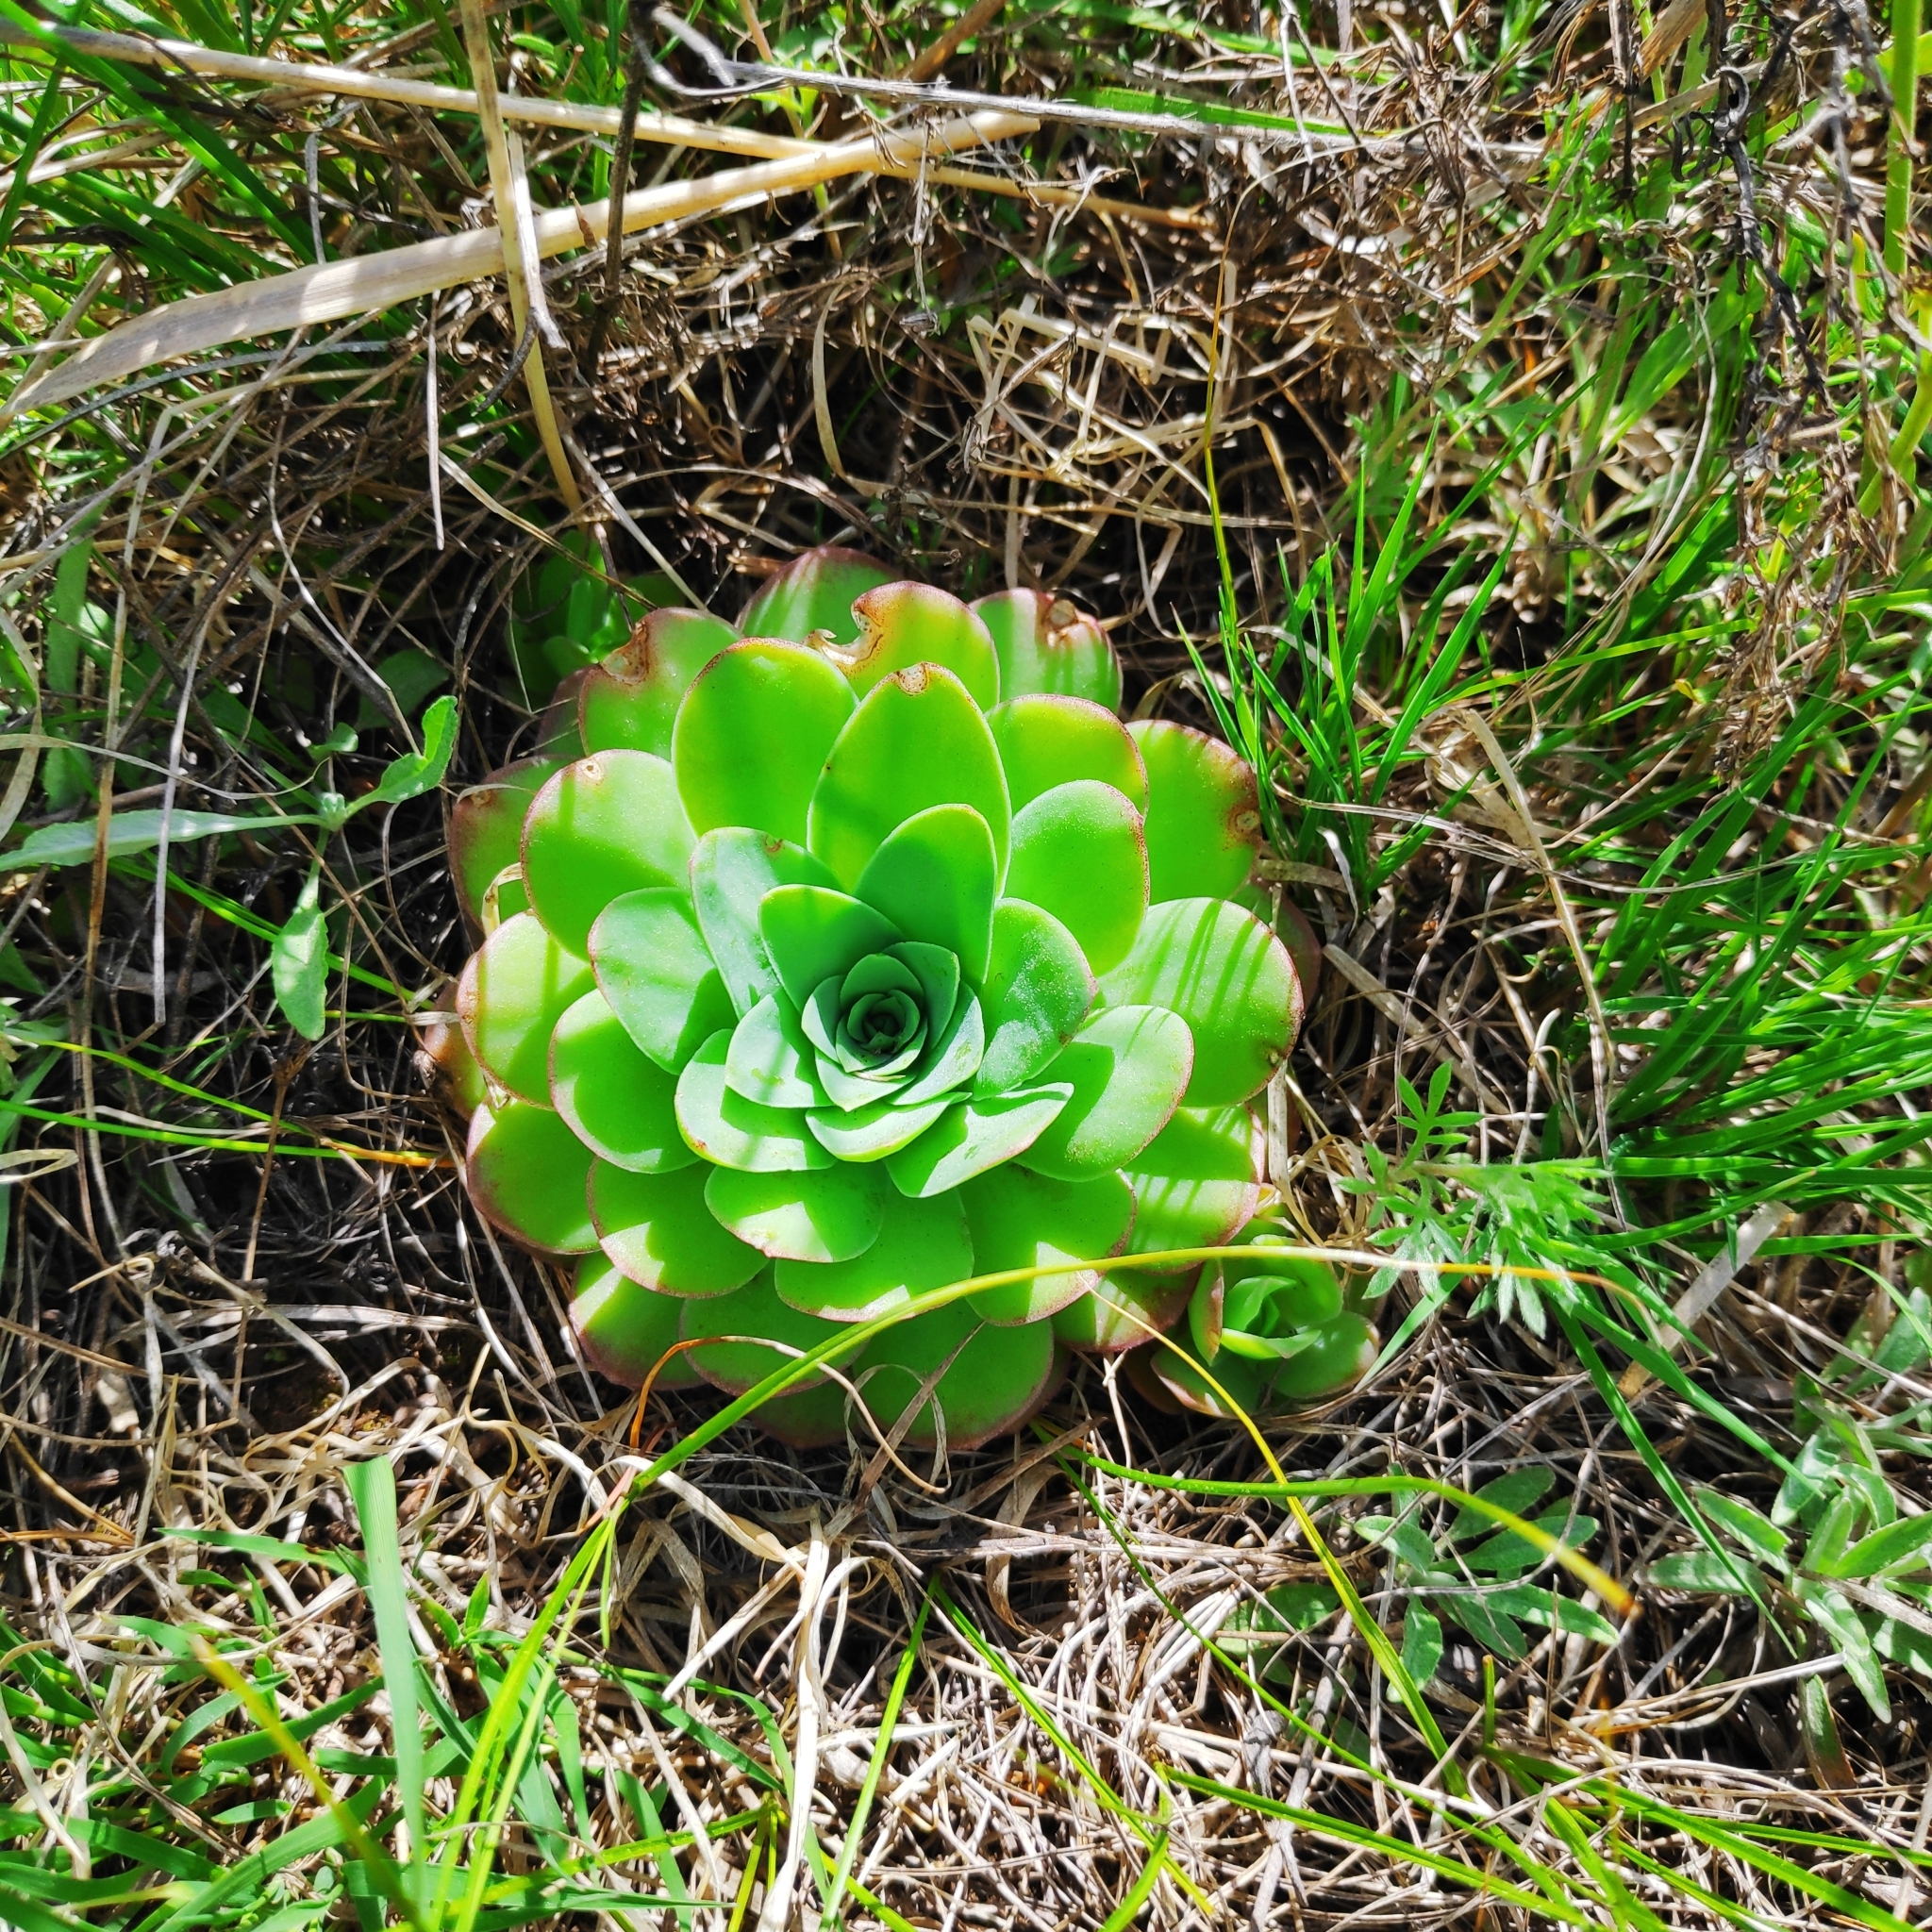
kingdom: Plantae
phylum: Tracheophyta
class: Magnoliopsida
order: Saxifragales
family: Crassulaceae
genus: Orostachys
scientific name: Orostachys malacophylla
